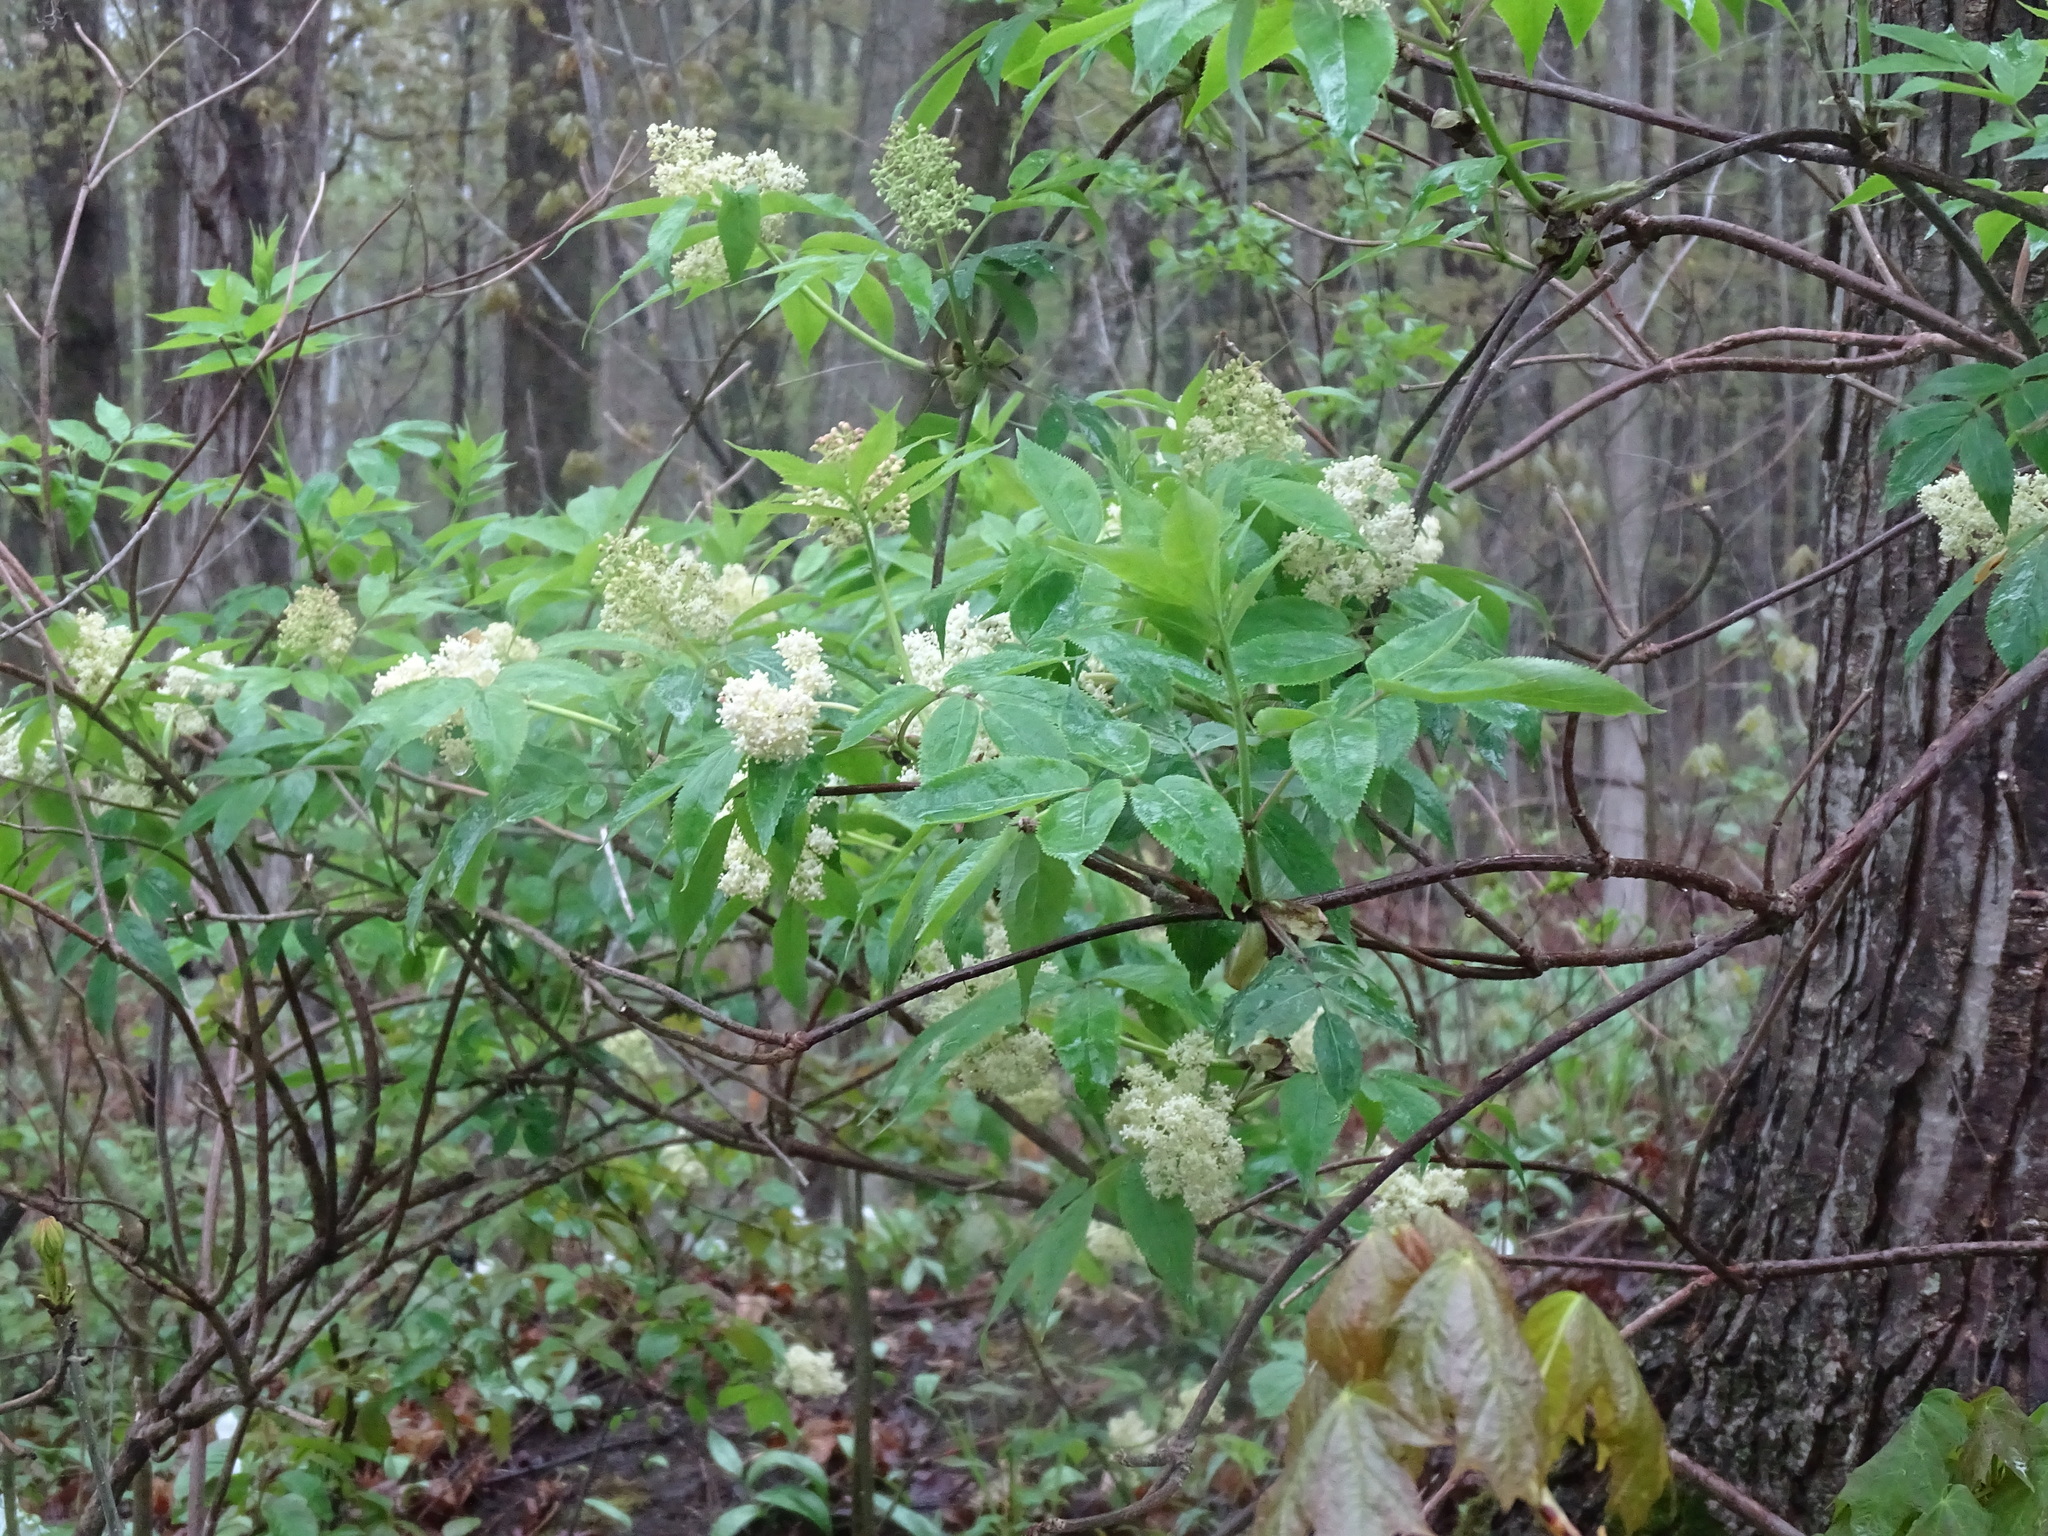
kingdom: Plantae
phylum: Tracheophyta
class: Magnoliopsida
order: Dipsacales
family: Viburnaceae
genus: Sambucus
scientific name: Sambucus racemosa
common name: Red-berried elder
